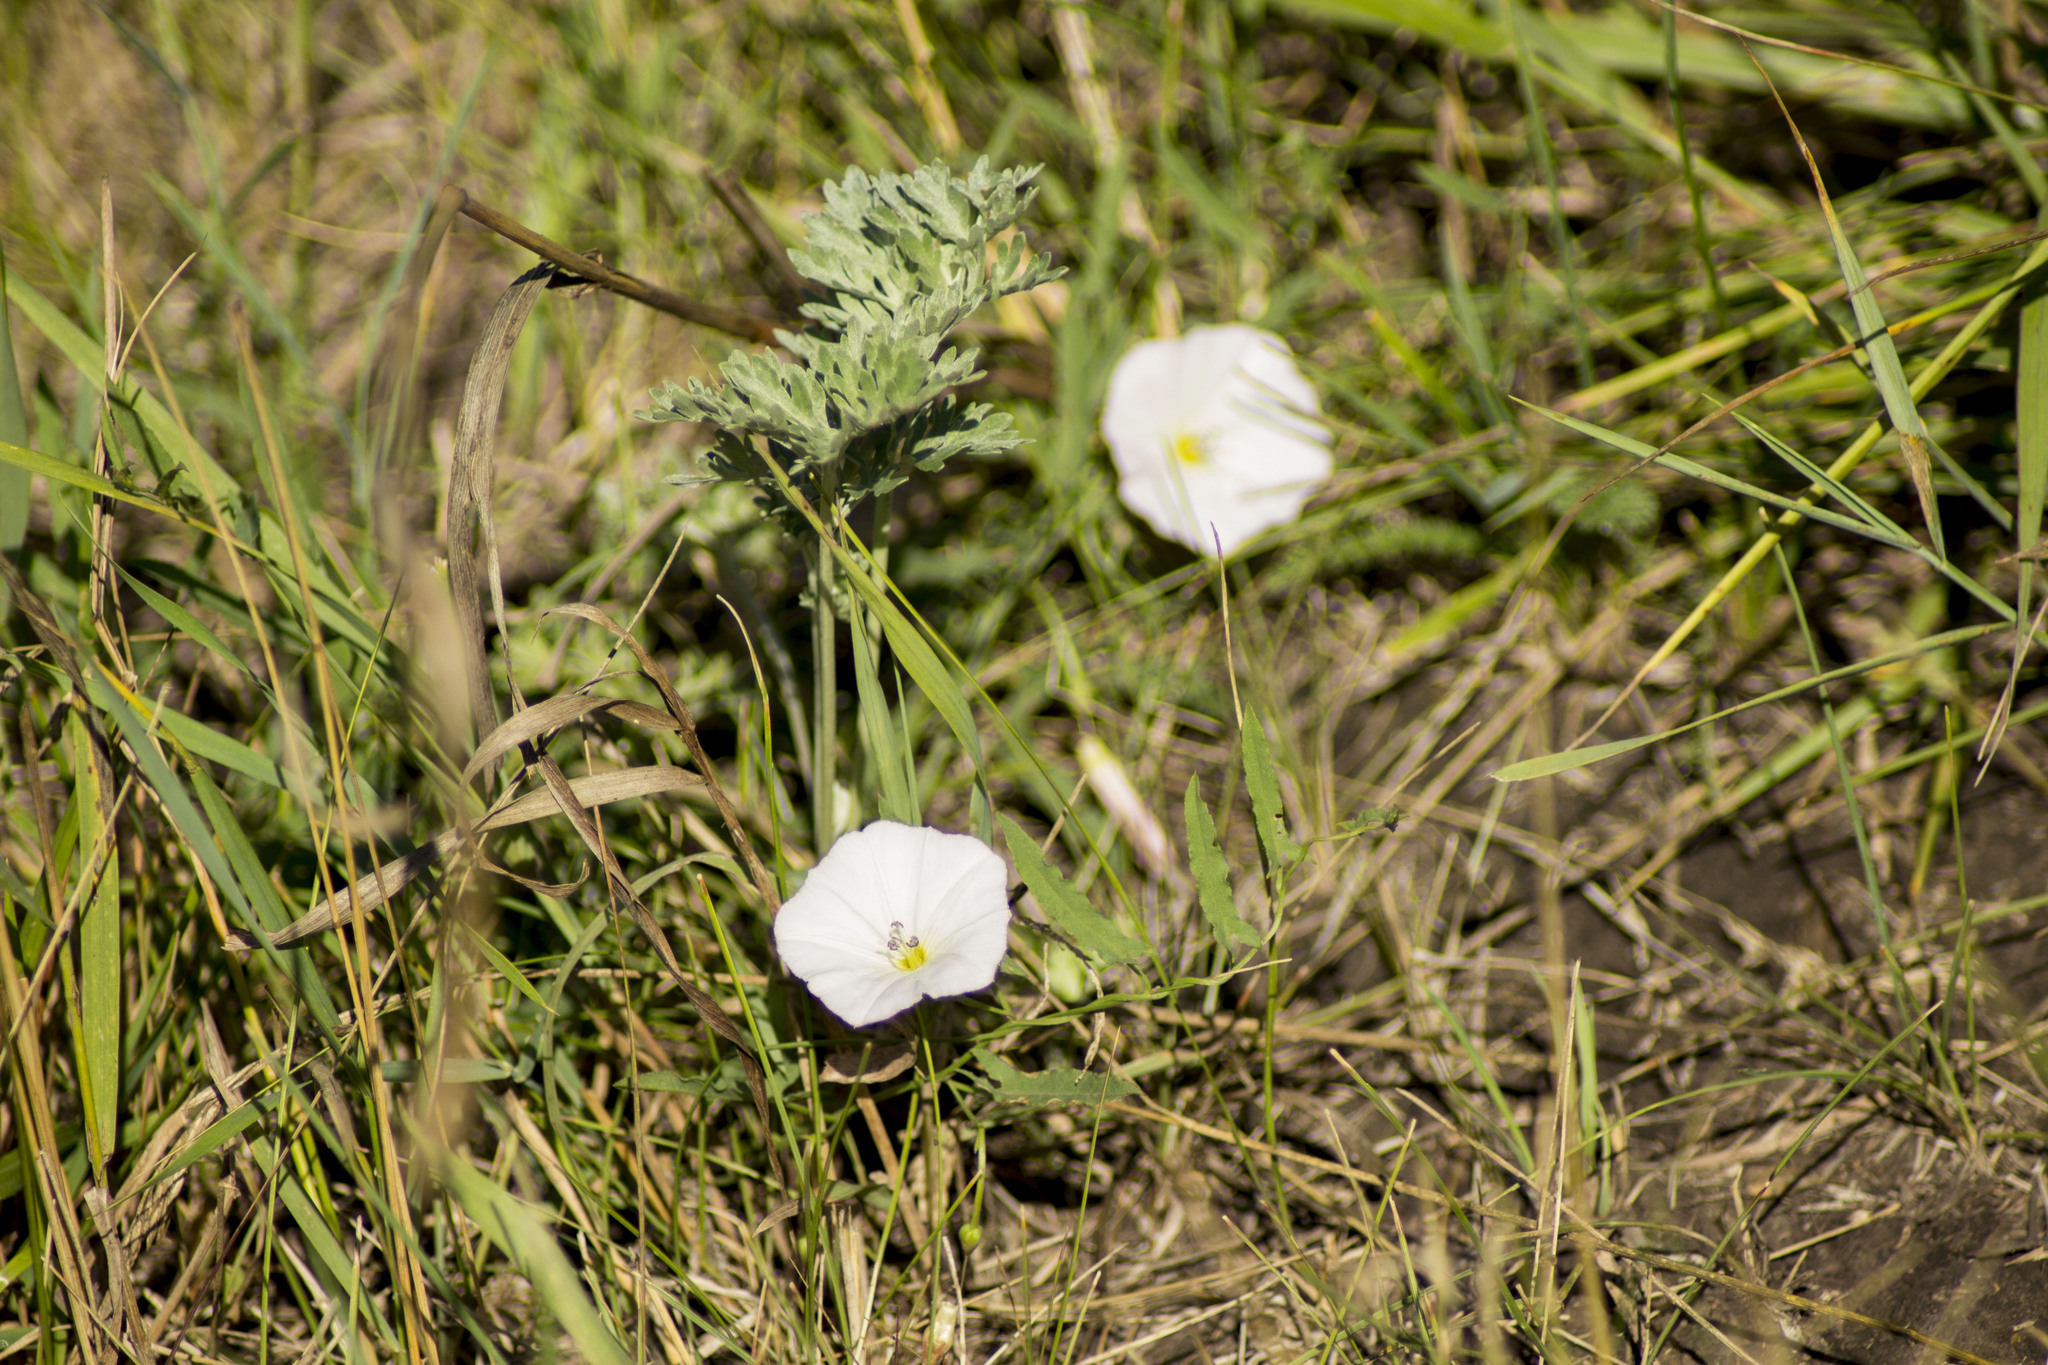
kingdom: Plantae
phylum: Tracheophyta
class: Magnoliopsida
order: Solanales
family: Convolvulaceae
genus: Convolvulus
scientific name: Convolvulus arvensis
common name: Field bindweed
